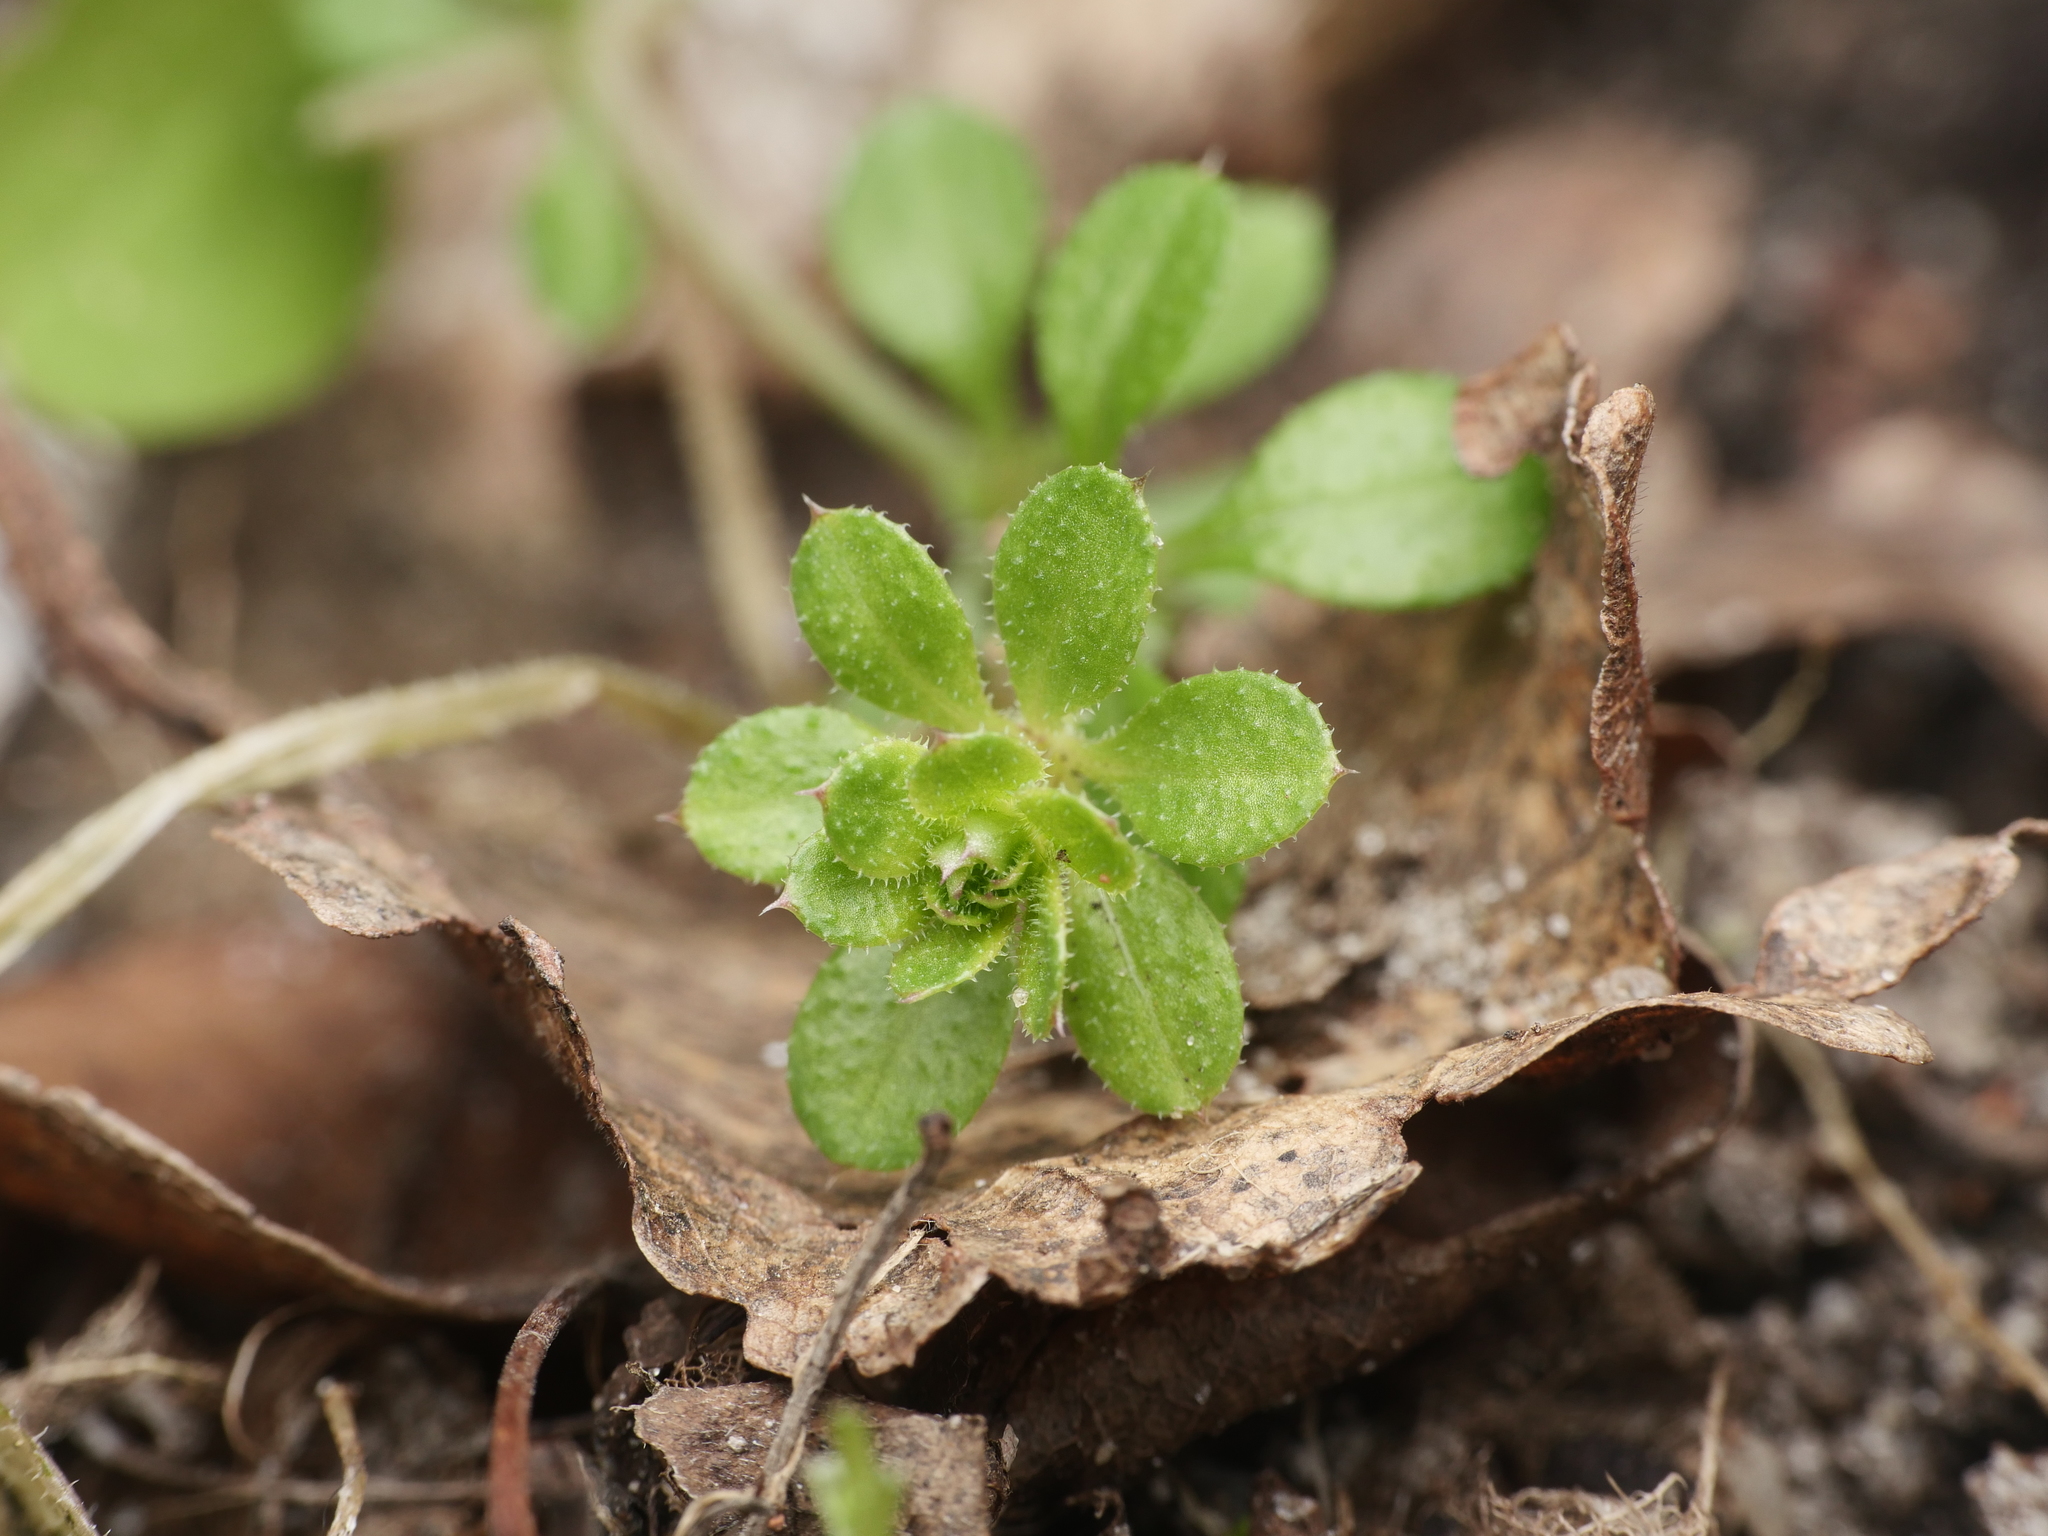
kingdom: Plantae
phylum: Tracheophyta
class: Magnoliopsida
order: Gentianales
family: Rubiaceae
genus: Galium
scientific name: Galium aparine
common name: Cleavers
